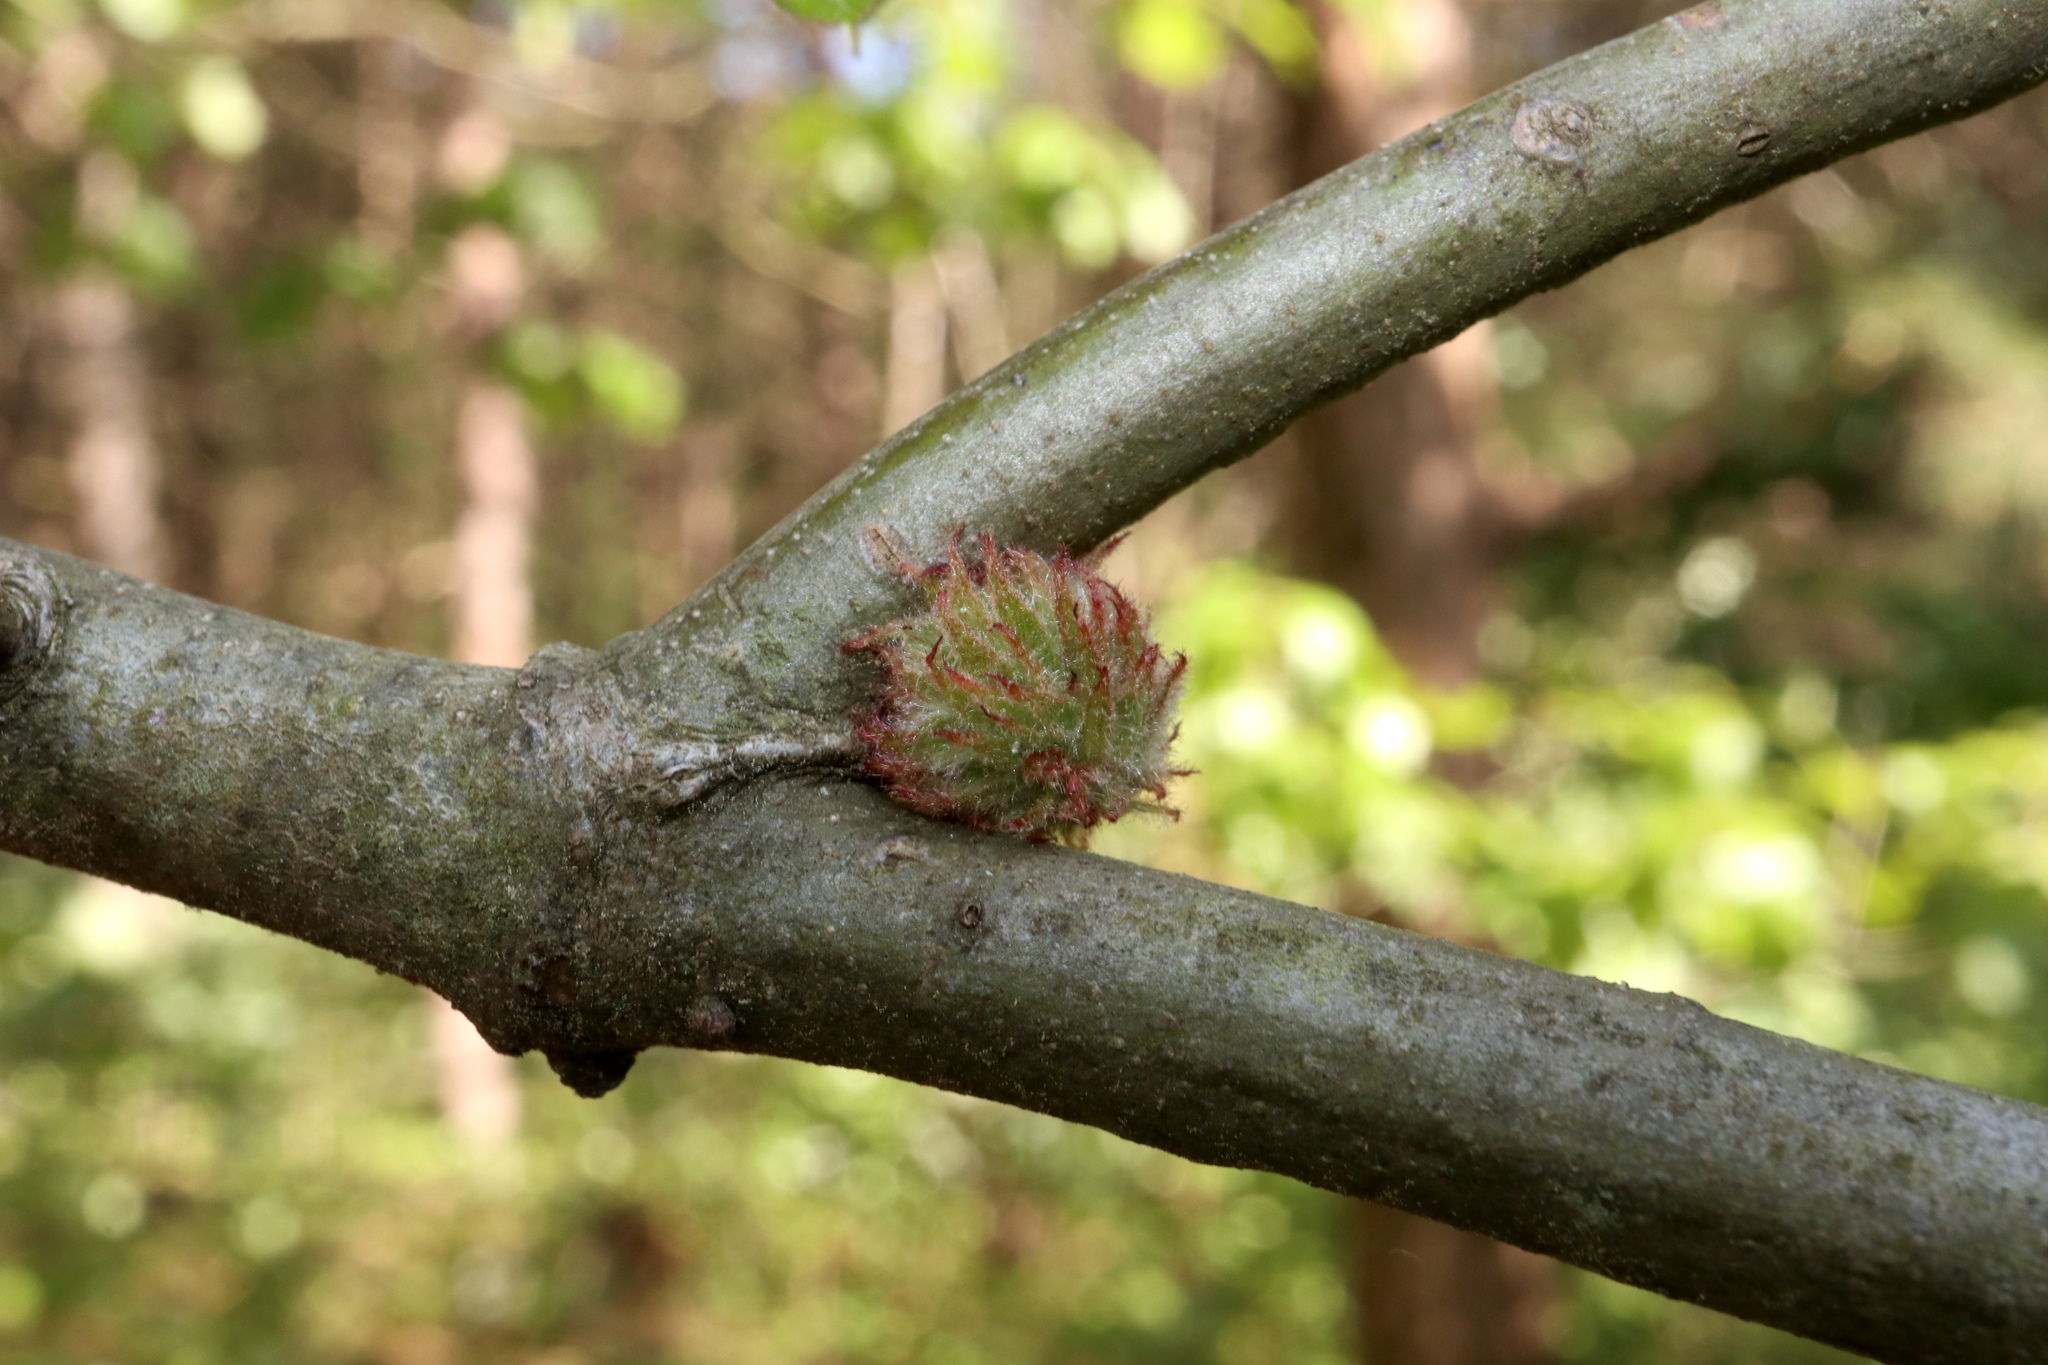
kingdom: Animalia
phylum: Arthropoda
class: Insecta
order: Hymenoptera
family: Cynipidae
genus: Dryocosmus
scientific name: Dryocosmus
